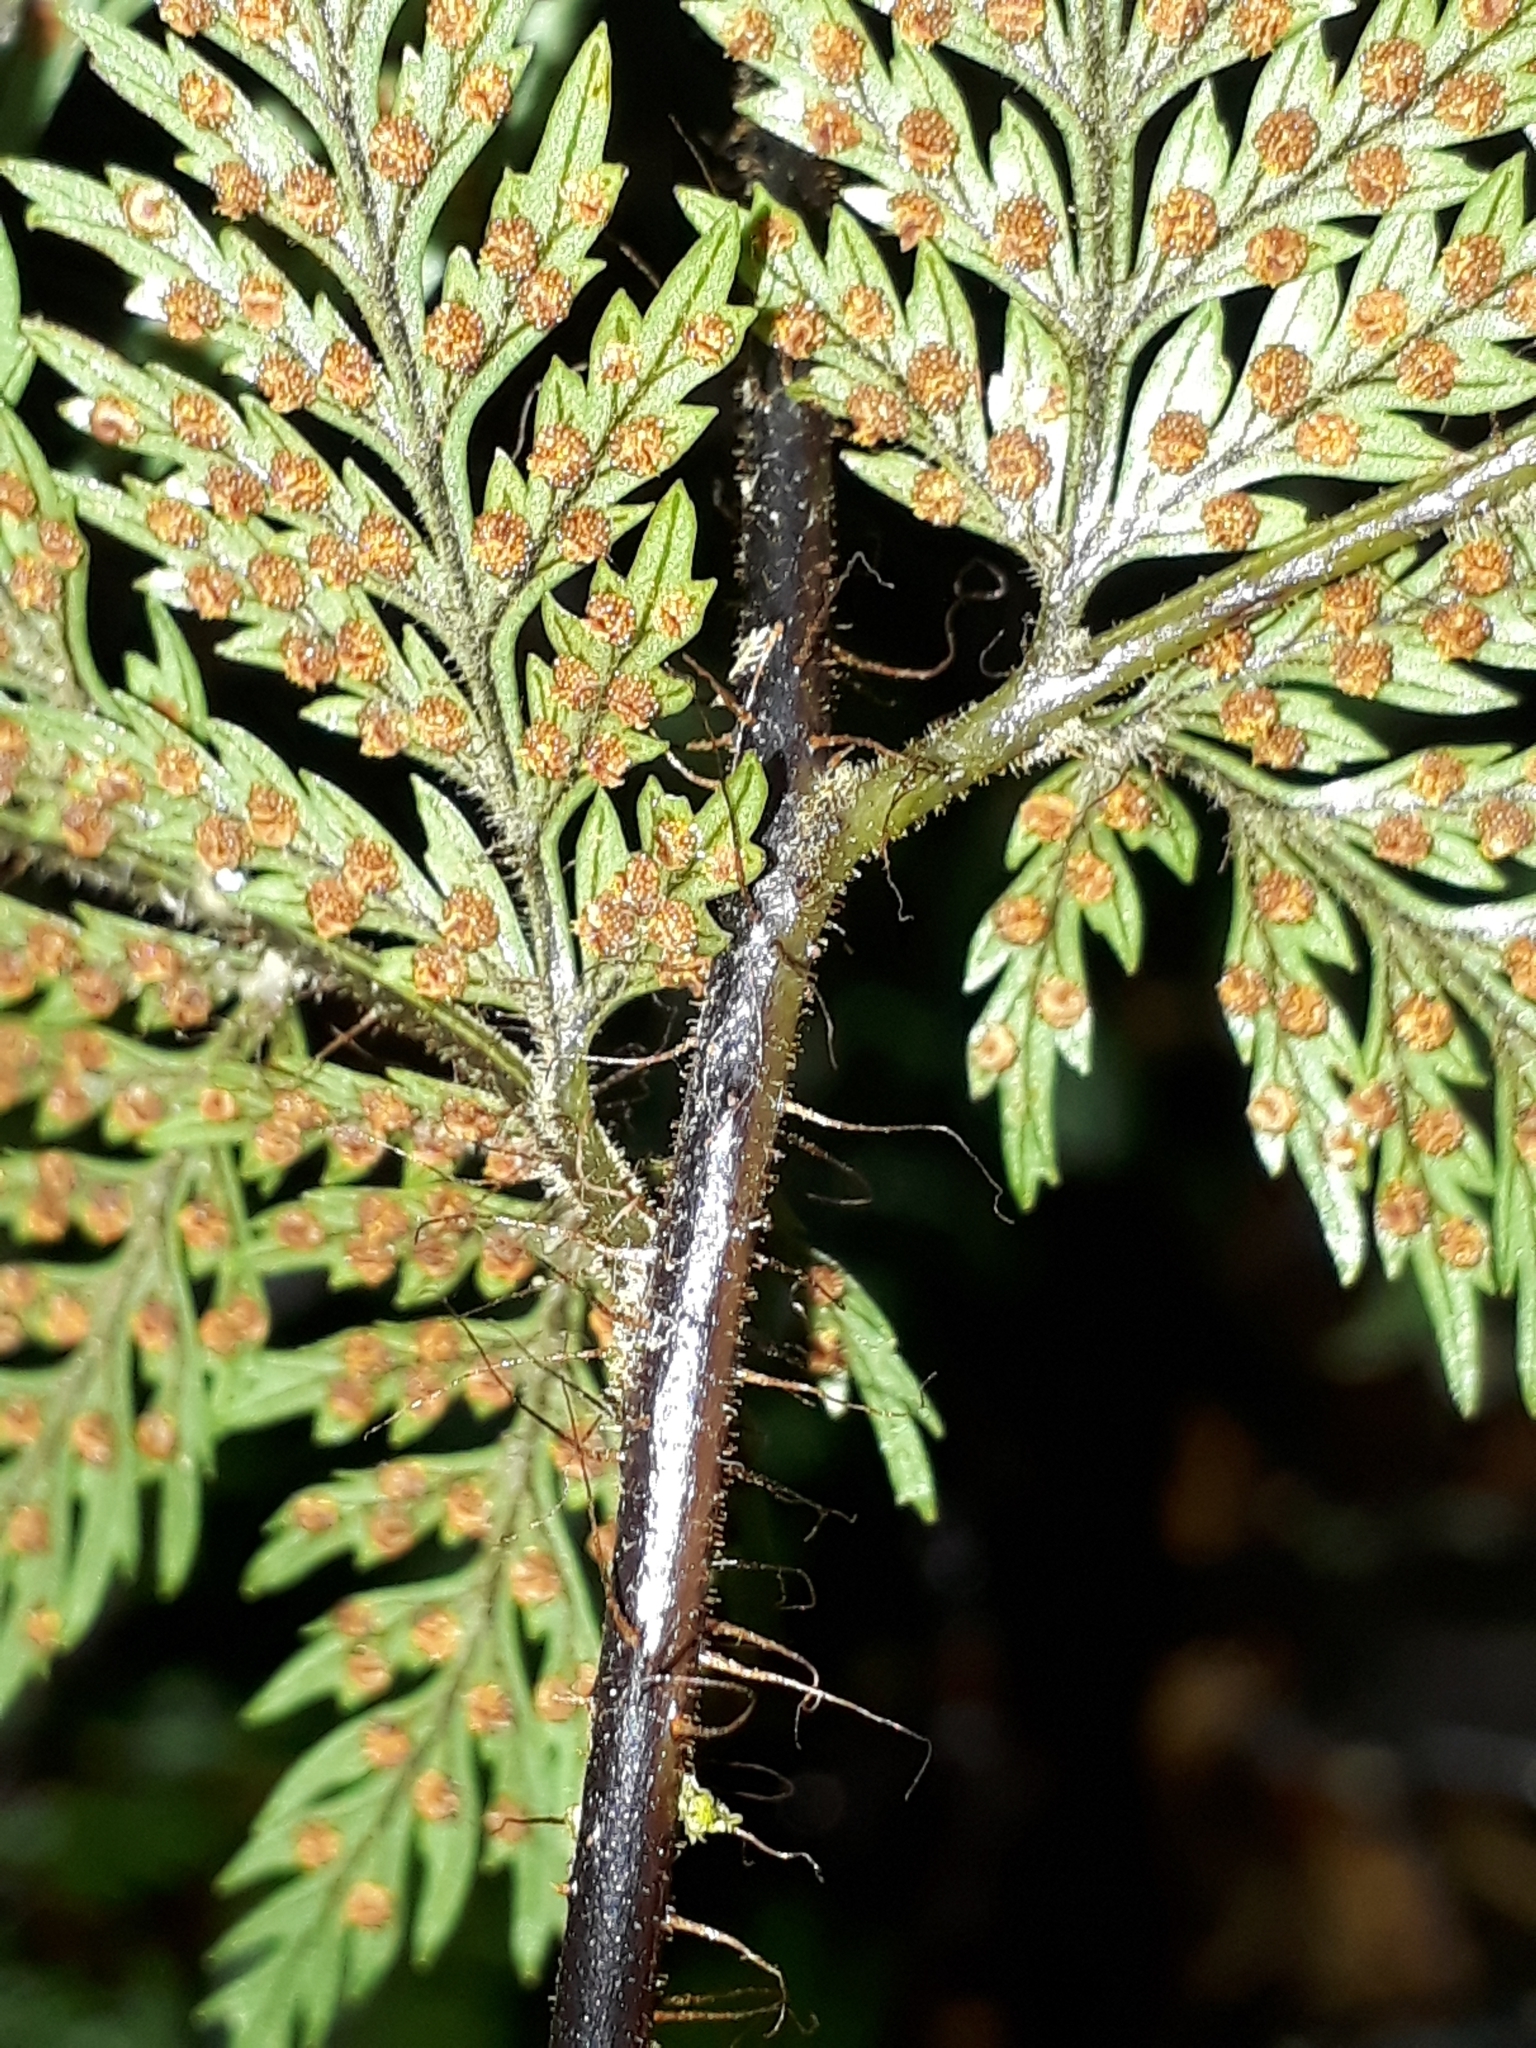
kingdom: Plantae
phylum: Tracheophyta
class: Polypodiopsida
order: Polypodiales
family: Dryopteridaceae
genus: Lastreopsis
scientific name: Lastreopsis hispida
